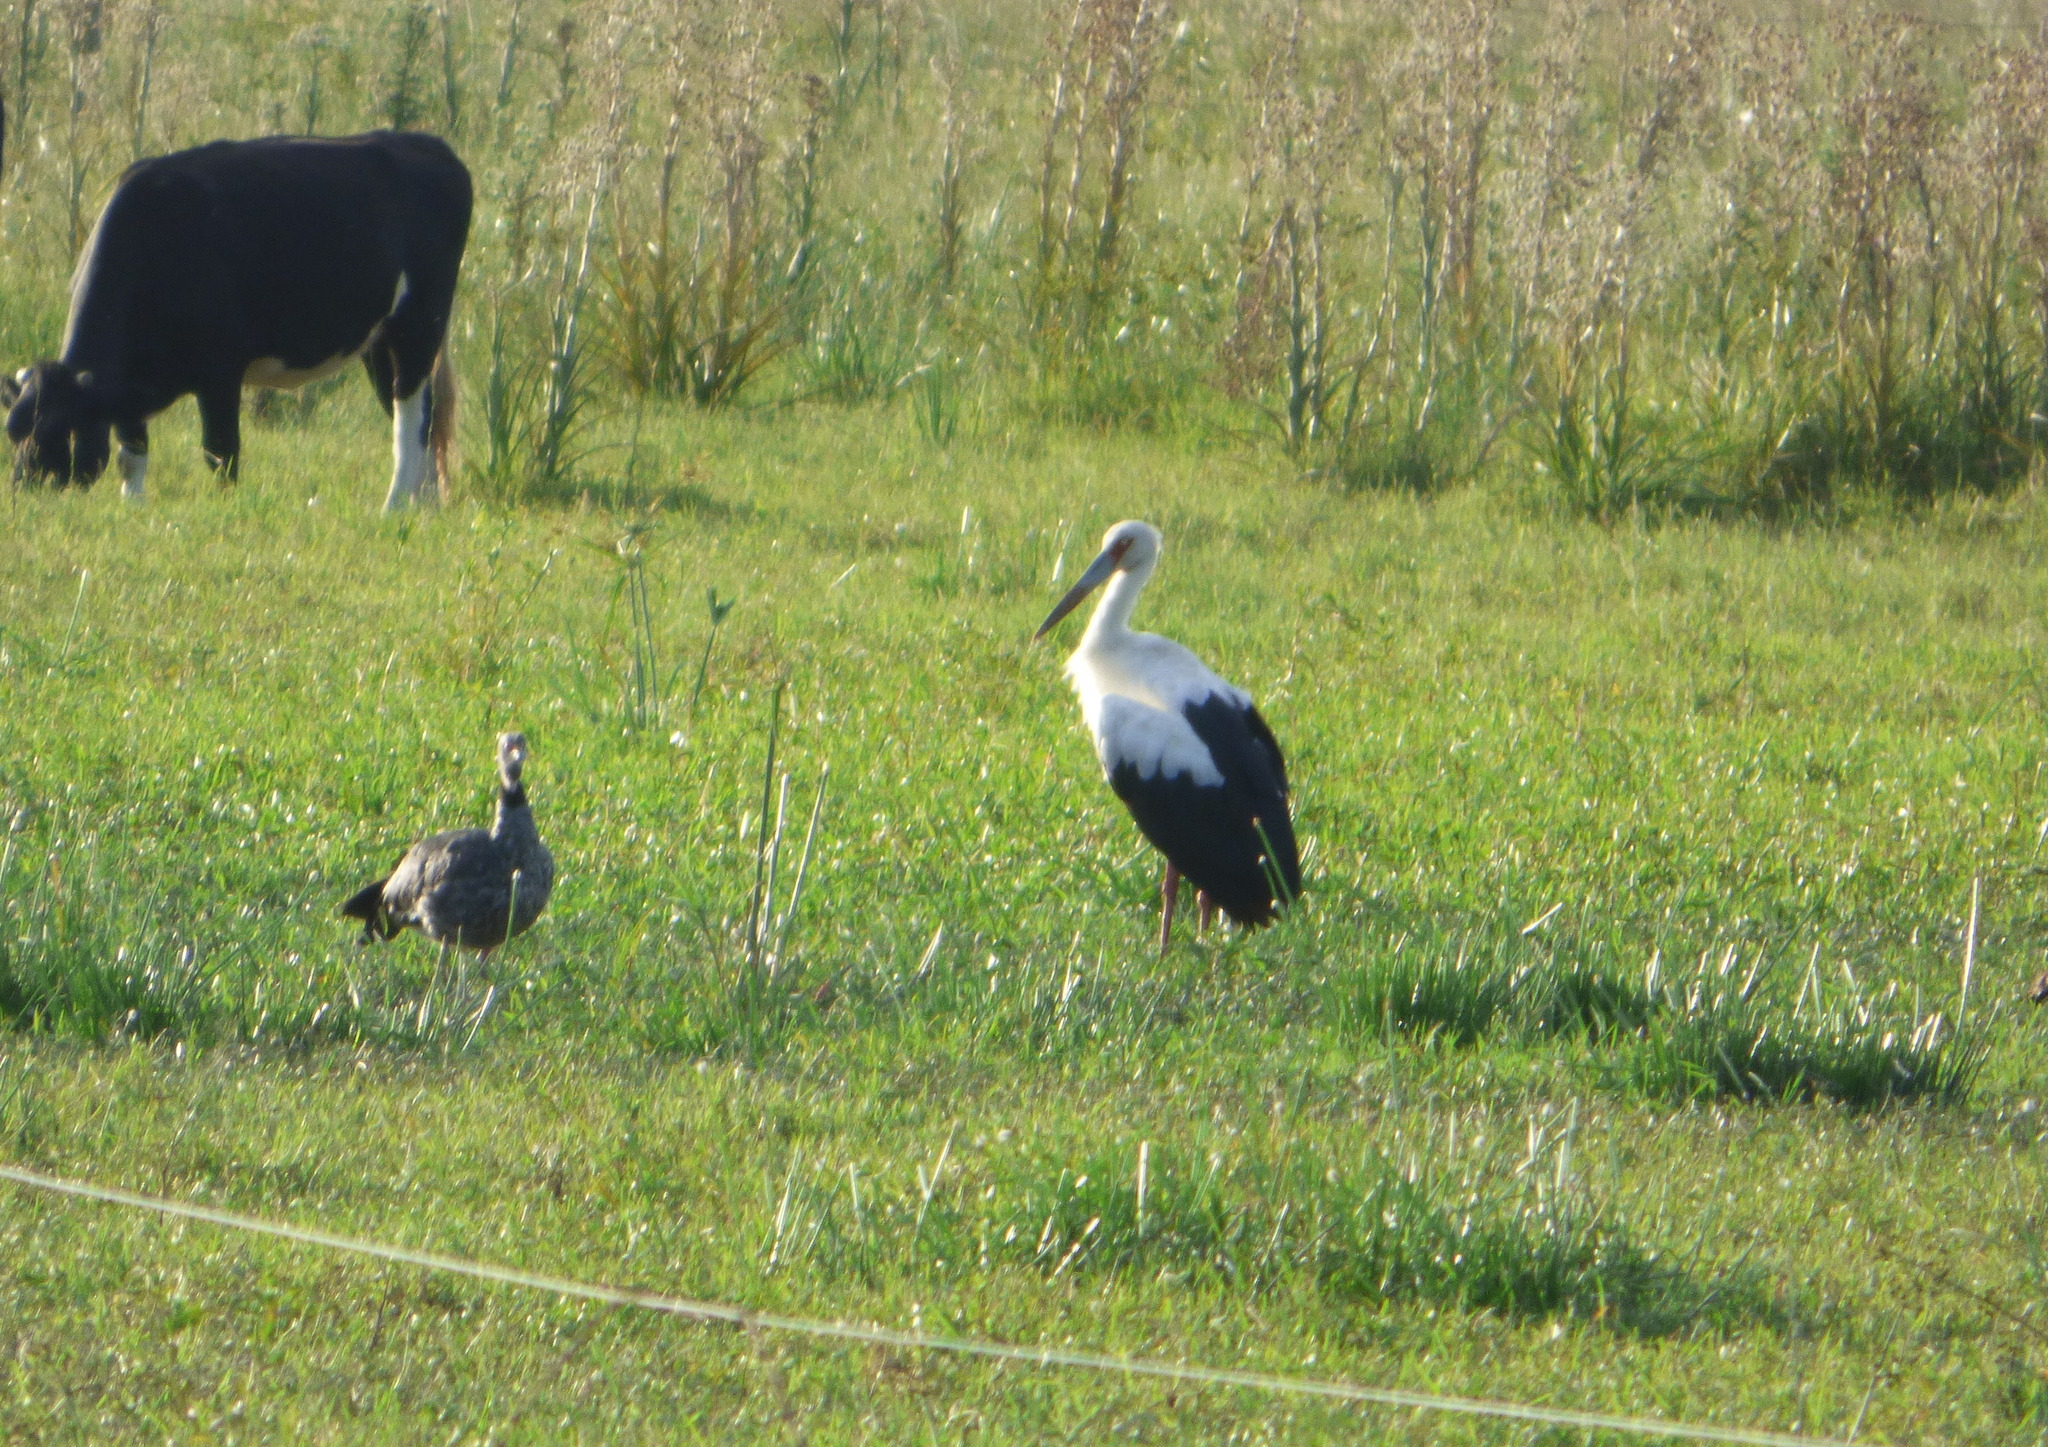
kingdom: Animalia
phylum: Chordata
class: Aves
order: Ciconiiformes
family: Ciconiidae
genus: Ciconia
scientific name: Ciconia maguari
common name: Maguari stork
